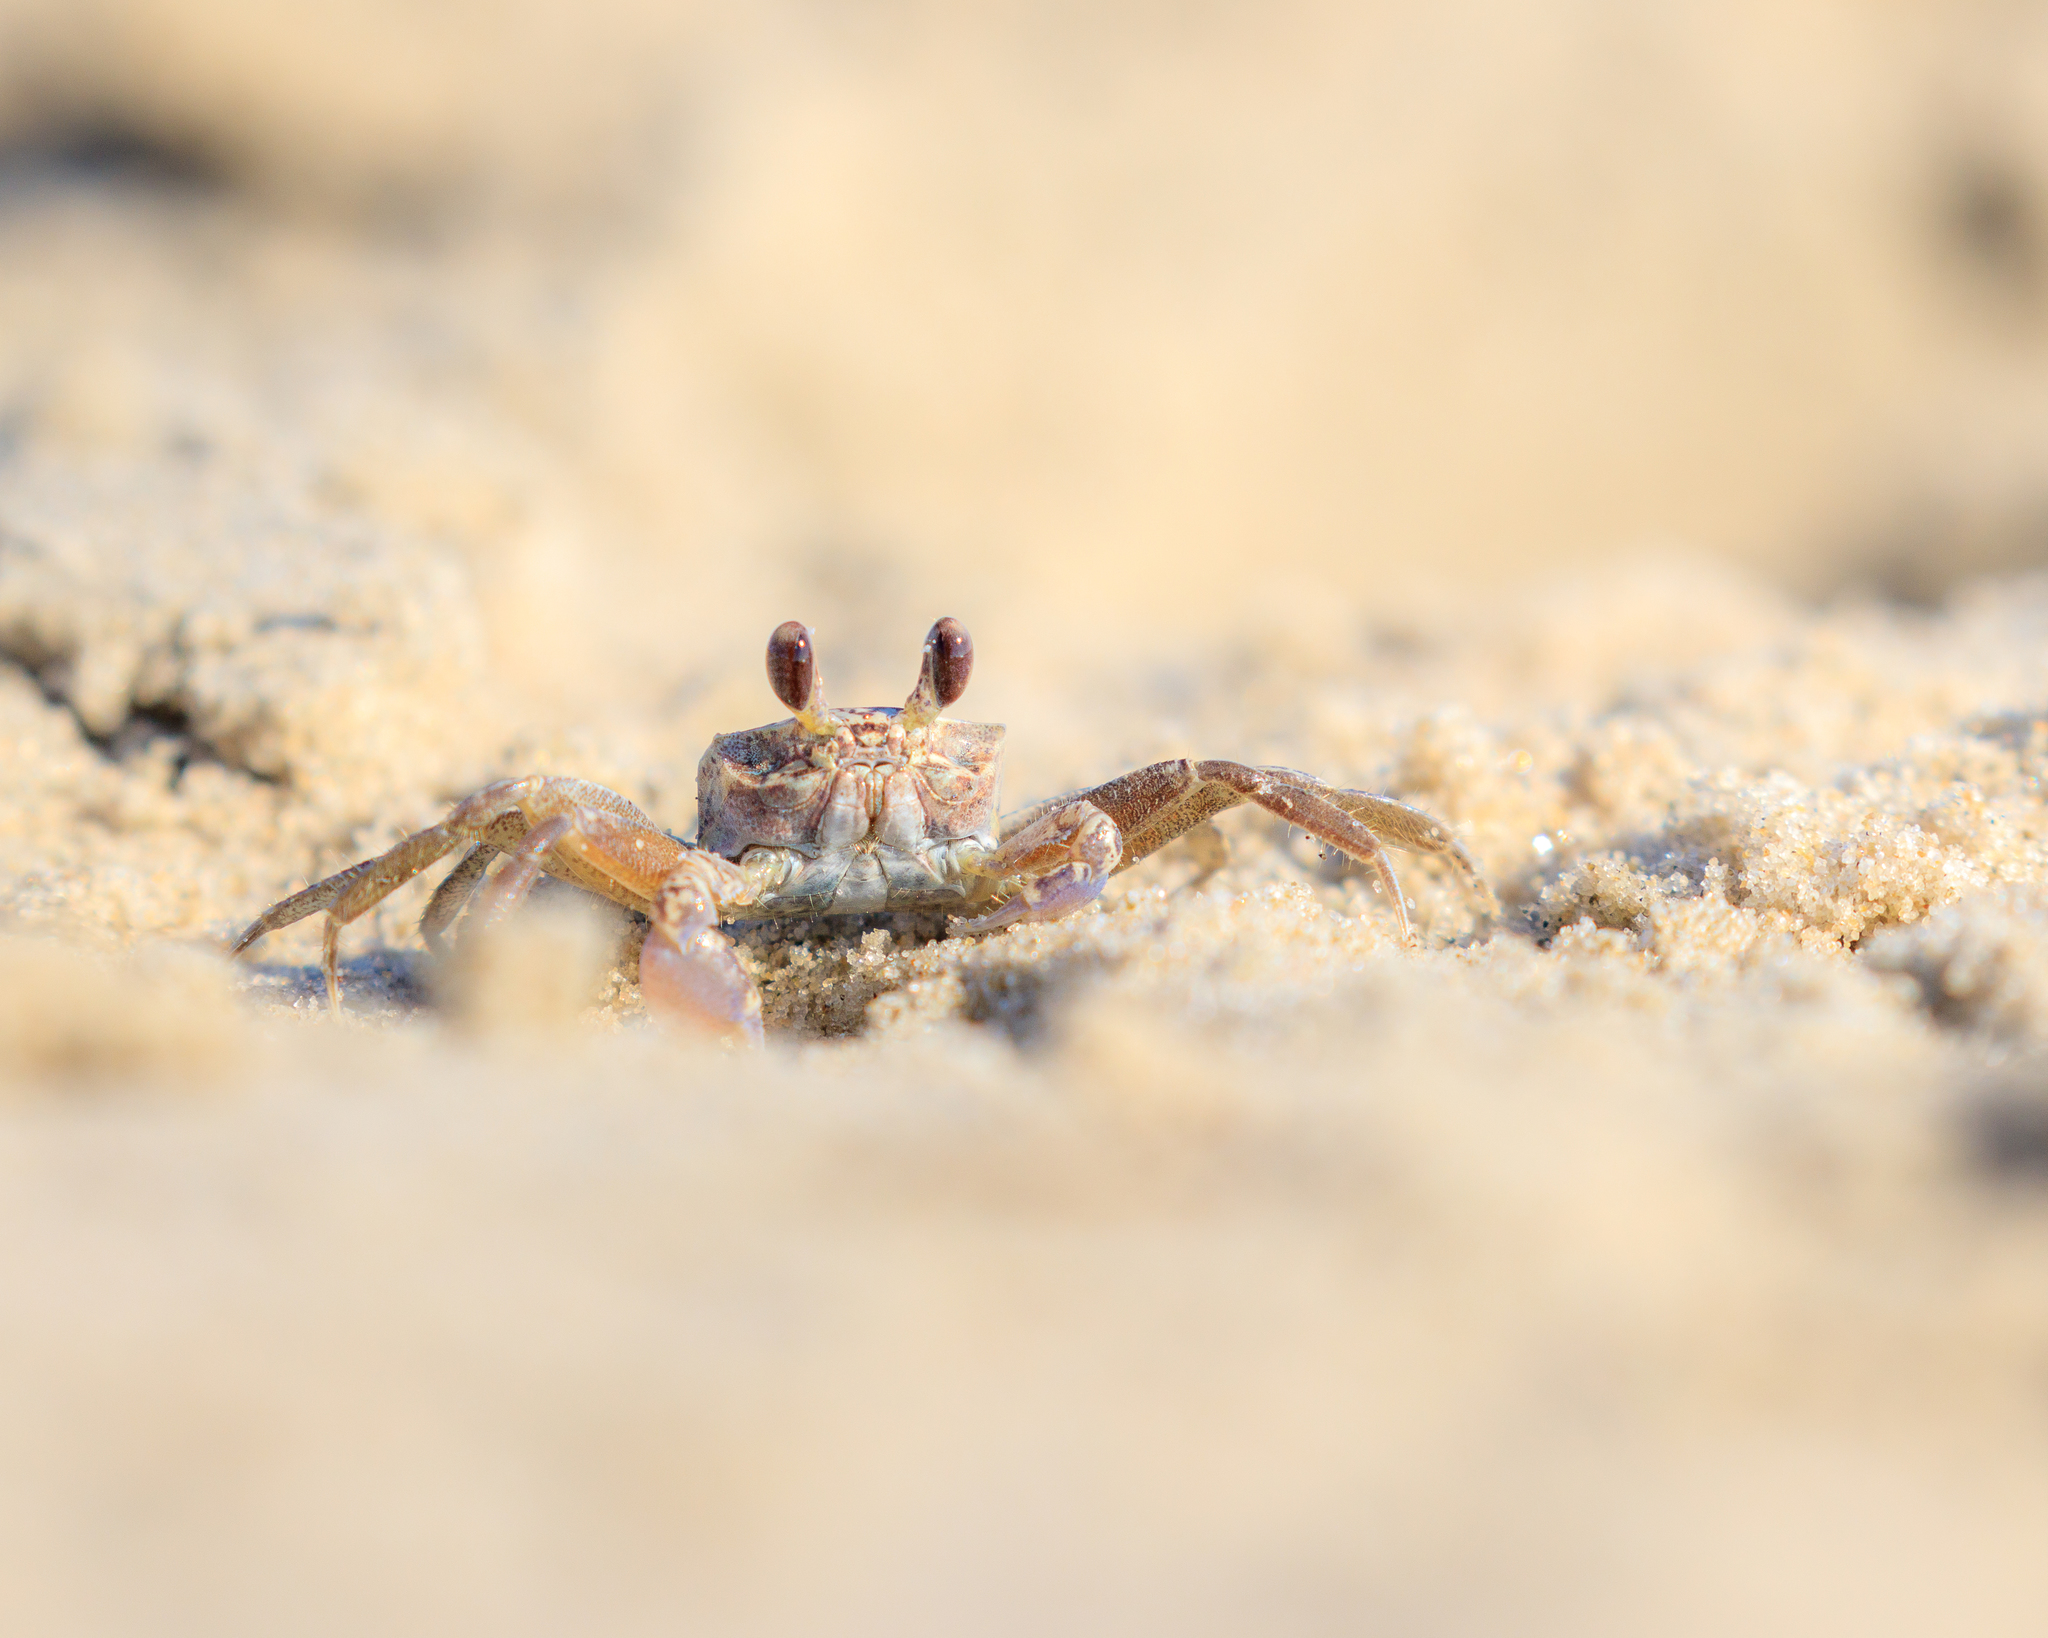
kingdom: Animalia
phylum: Arthropoda
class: Malacostraca
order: Decapoda
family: Ocypodidae
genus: Ocypode
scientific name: Ocypode quadrata
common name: Ghost crab
